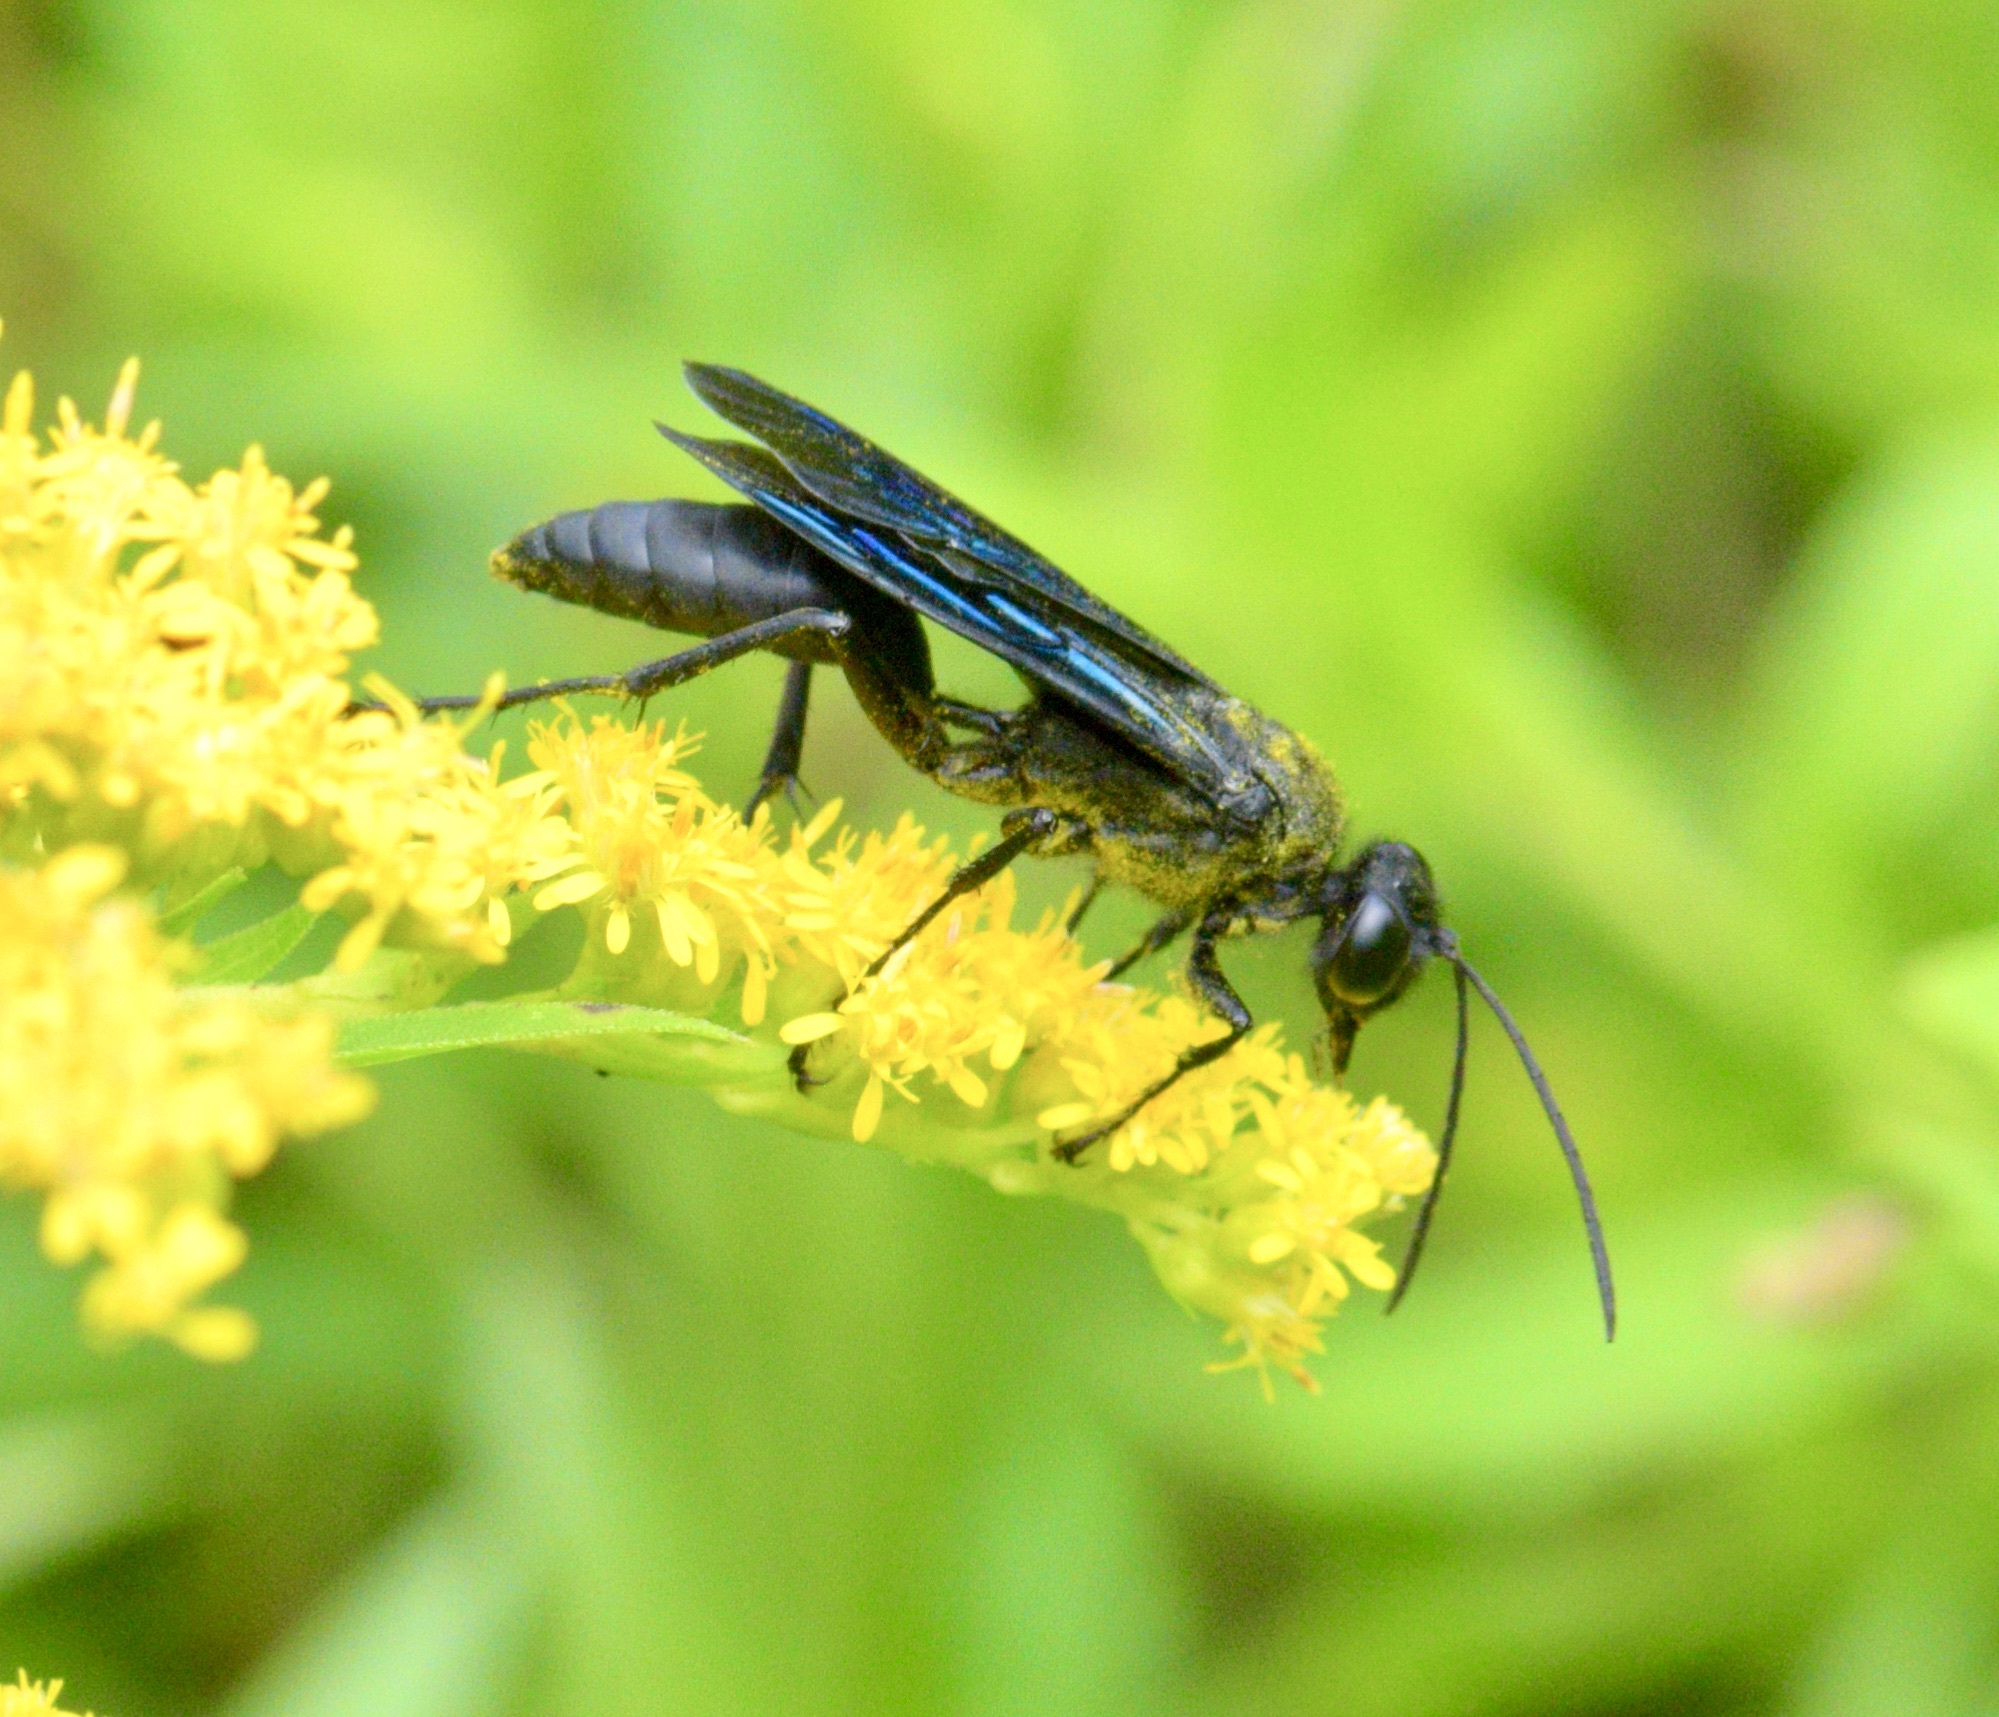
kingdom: Animalia
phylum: Arthropoda
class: Insecta
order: Hymenoptera
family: Sphecidae
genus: Sphex
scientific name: Sphex pensylvanicus
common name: Great black digger wasp
